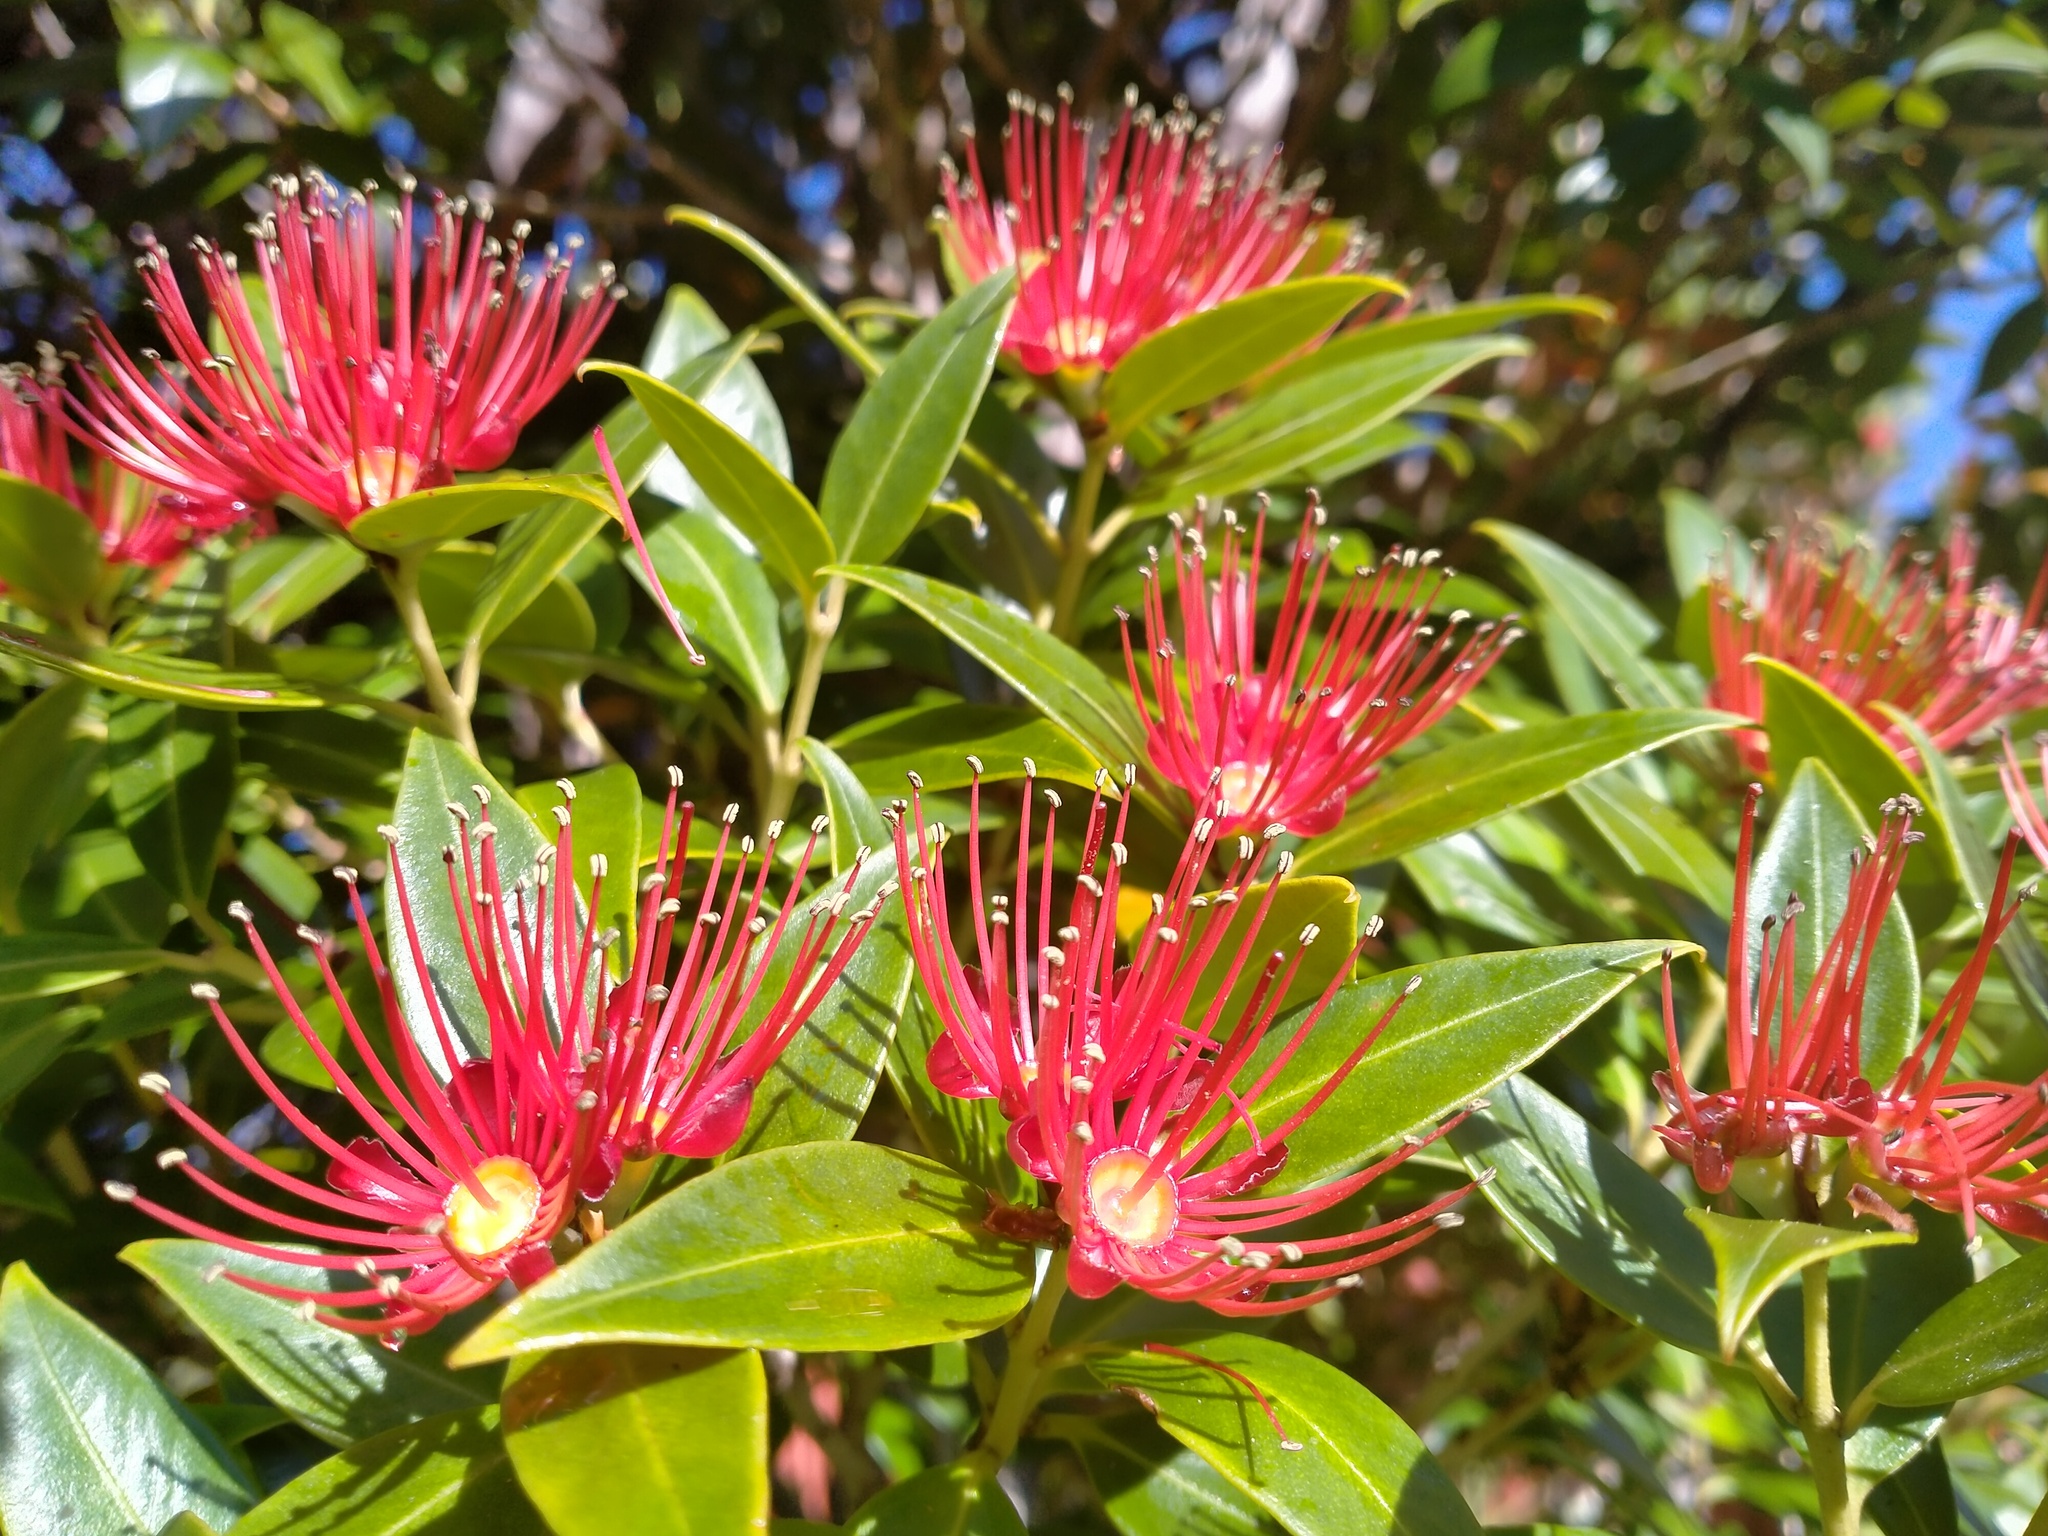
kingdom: Plantae
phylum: Tracheophyta
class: Magnoliopsida
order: Myrtales
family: Myrtaceae
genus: Metrosideros
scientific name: Metrosideros umbellata
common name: Southern rata
